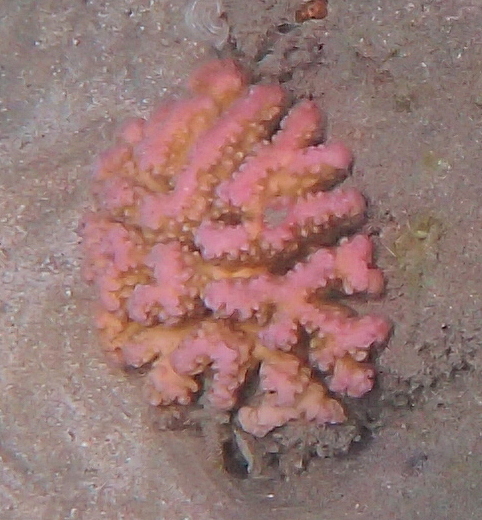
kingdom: Animalia
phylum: Cnidaria
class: Anthozoa
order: Scleractinia
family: Pocilloporidae
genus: Pocillopora
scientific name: Pocillopora verrucosa
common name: Cauliflower coral
